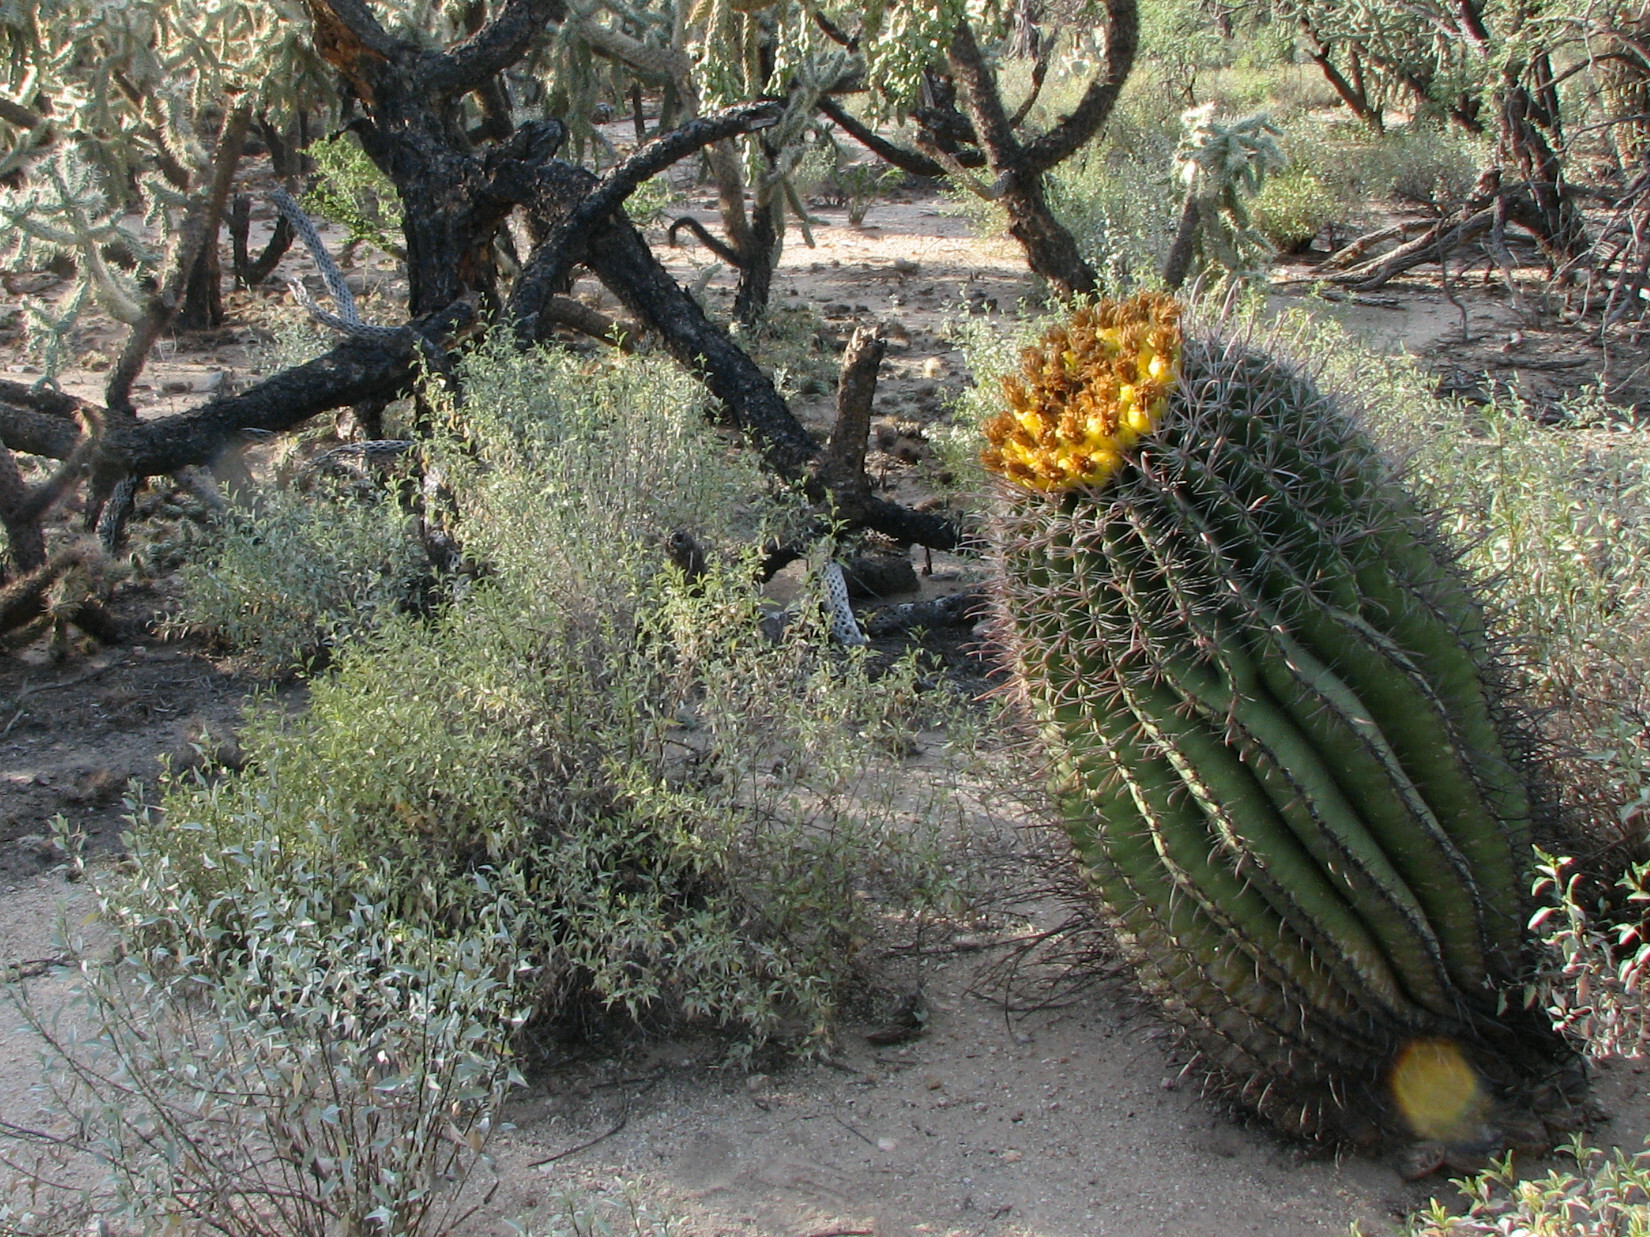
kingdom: Plantae
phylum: Tracheophyta
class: Magnoliopsida
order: Caryophyllales
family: Cactaceae
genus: Ferocactus
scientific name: Ferocactus wislizeni
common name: Candy barrel cactus
